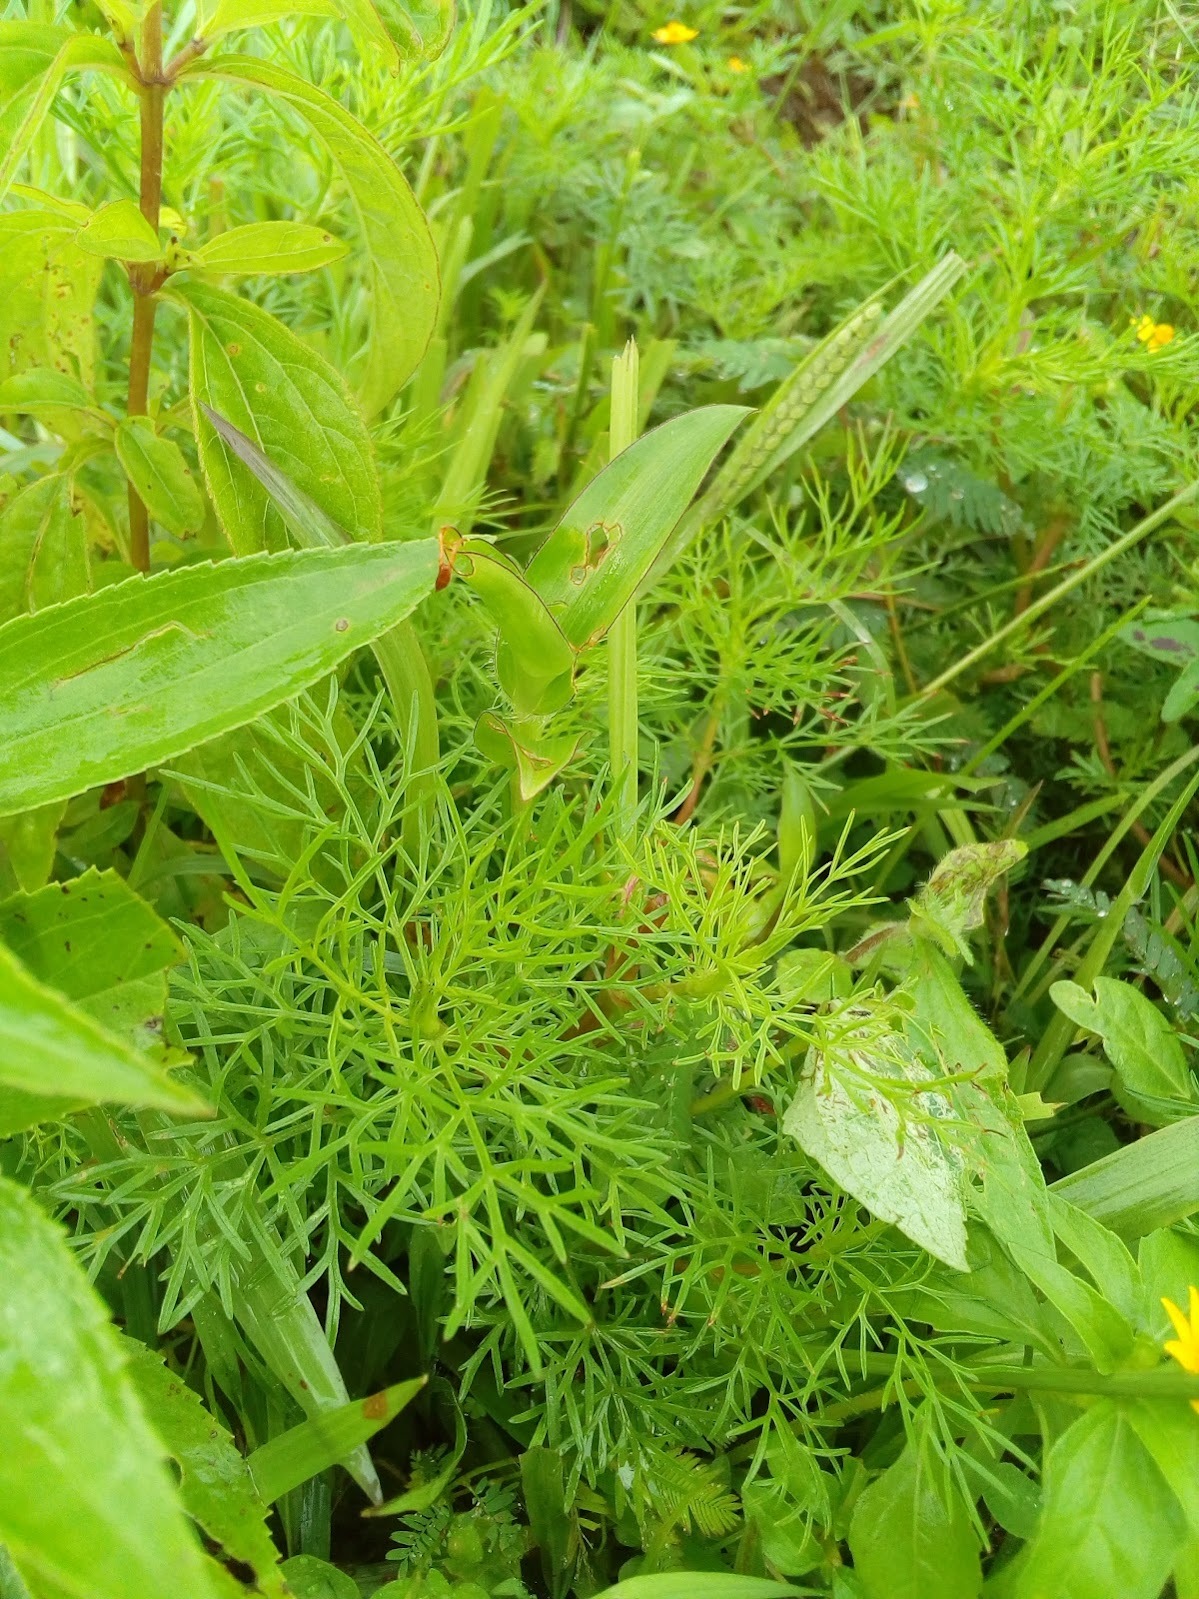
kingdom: Plantae
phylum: Tracheophyta
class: Magnoliopsida
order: Asterales
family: Asteraceae
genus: Cosmos
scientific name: Cosmos bipinnatus
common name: Garden cosmos
